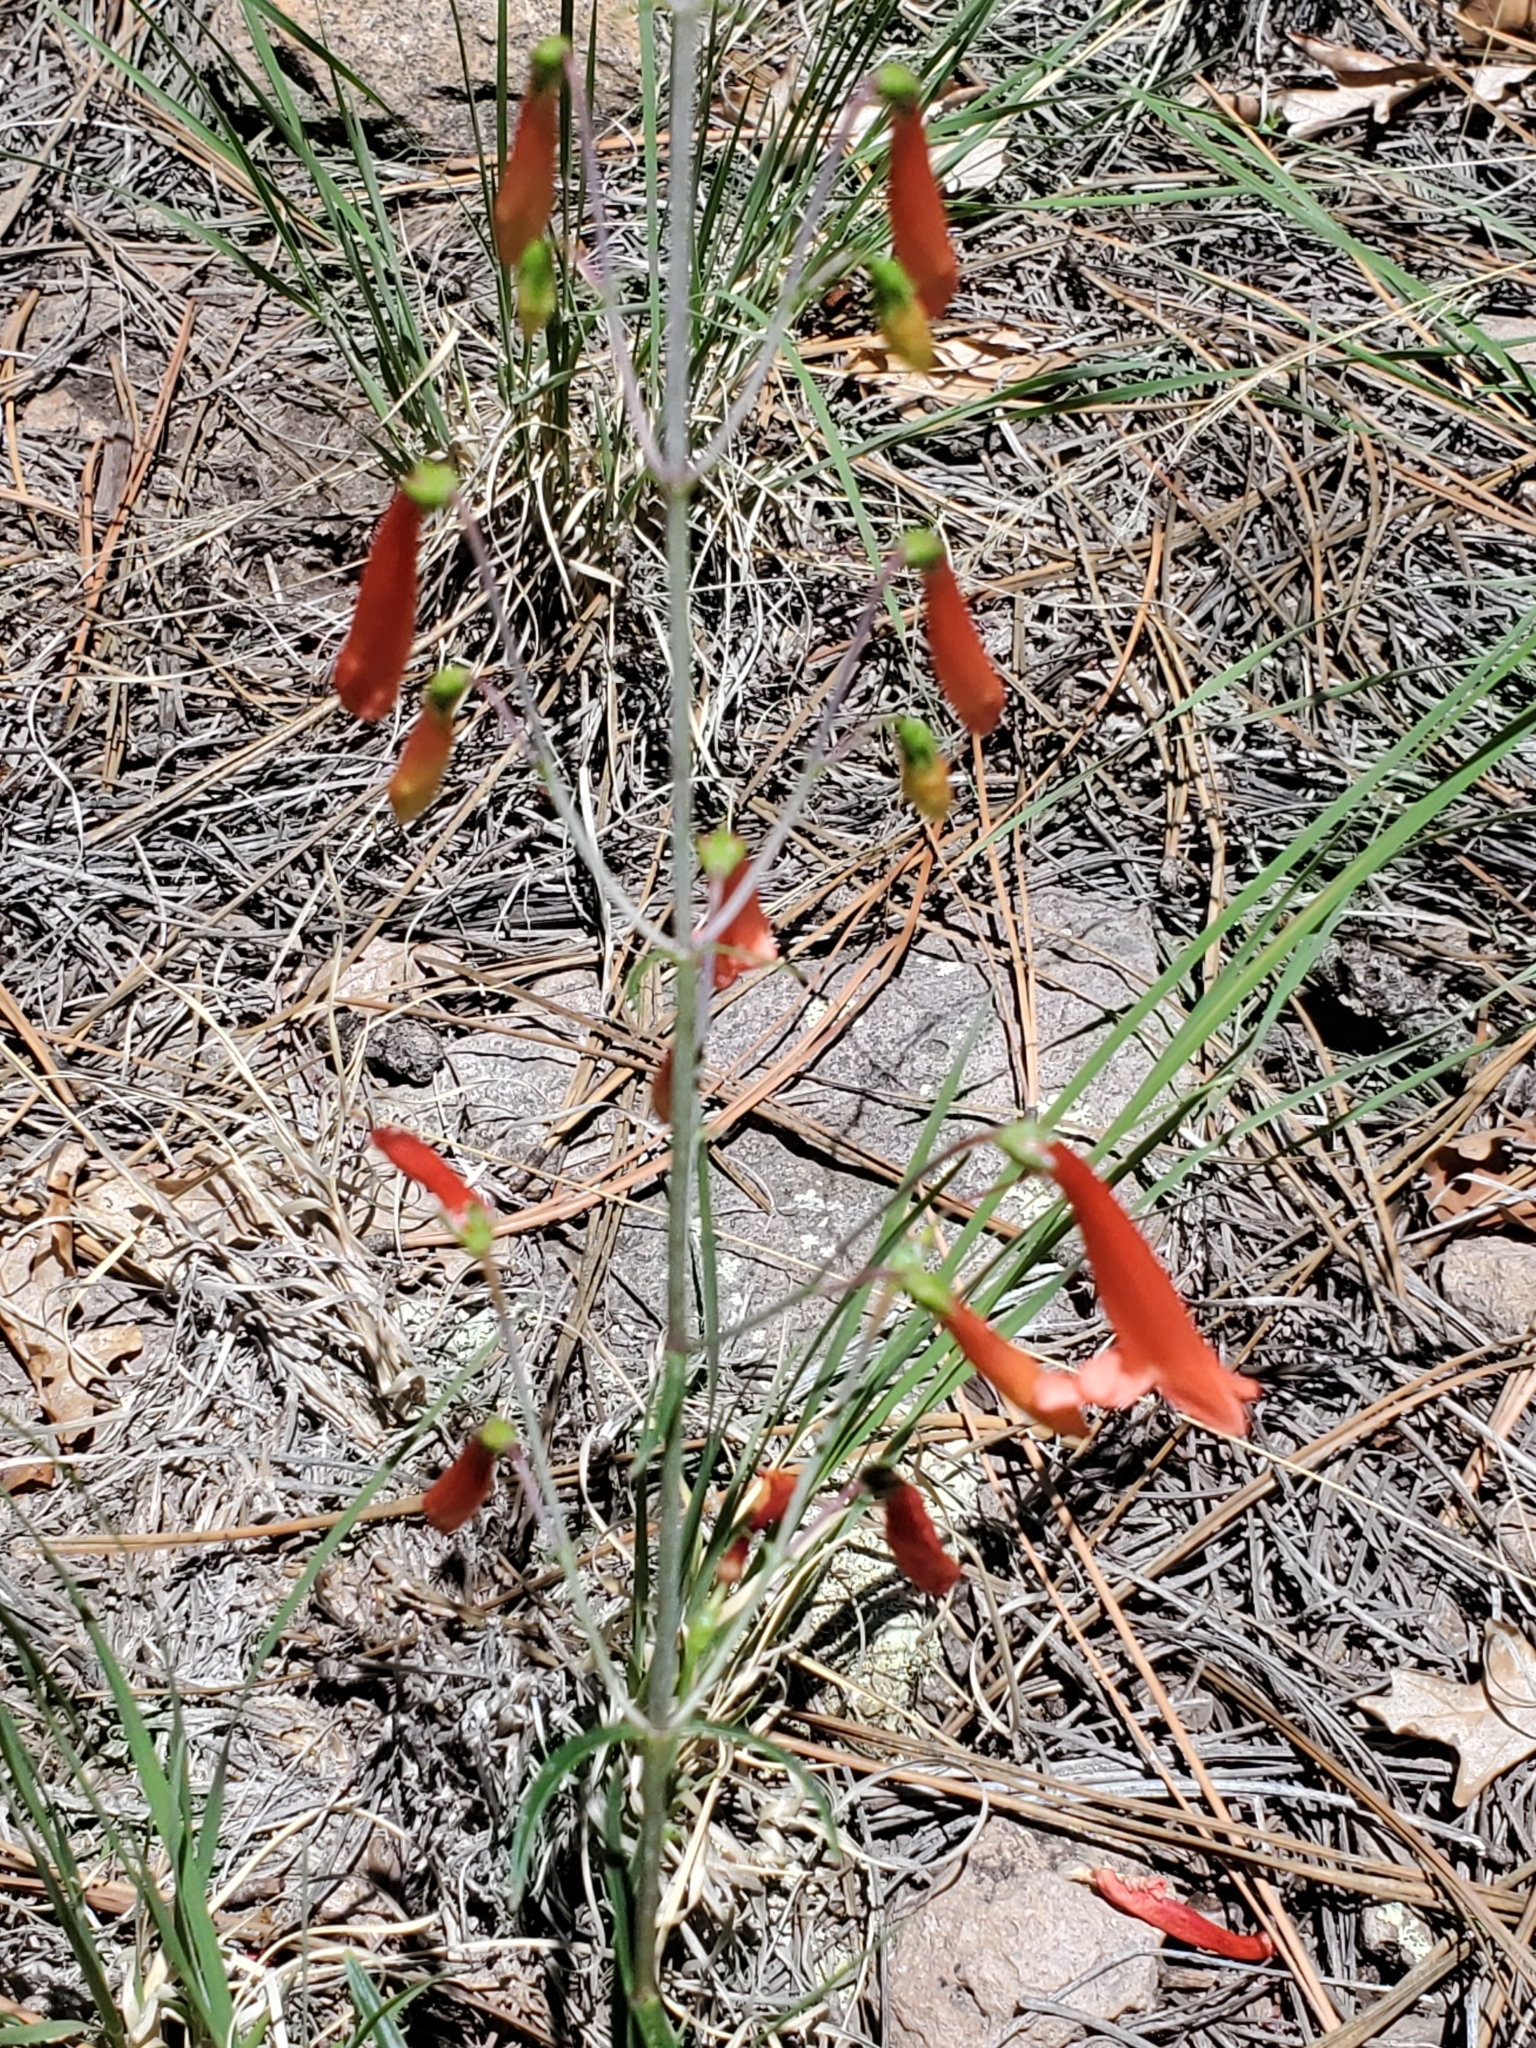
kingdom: Plantae
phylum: Tracheophyta
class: Magnoliopsida
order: Lamiales
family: Plantaginaceae
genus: Penstemon
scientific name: Penstemon barbatus
